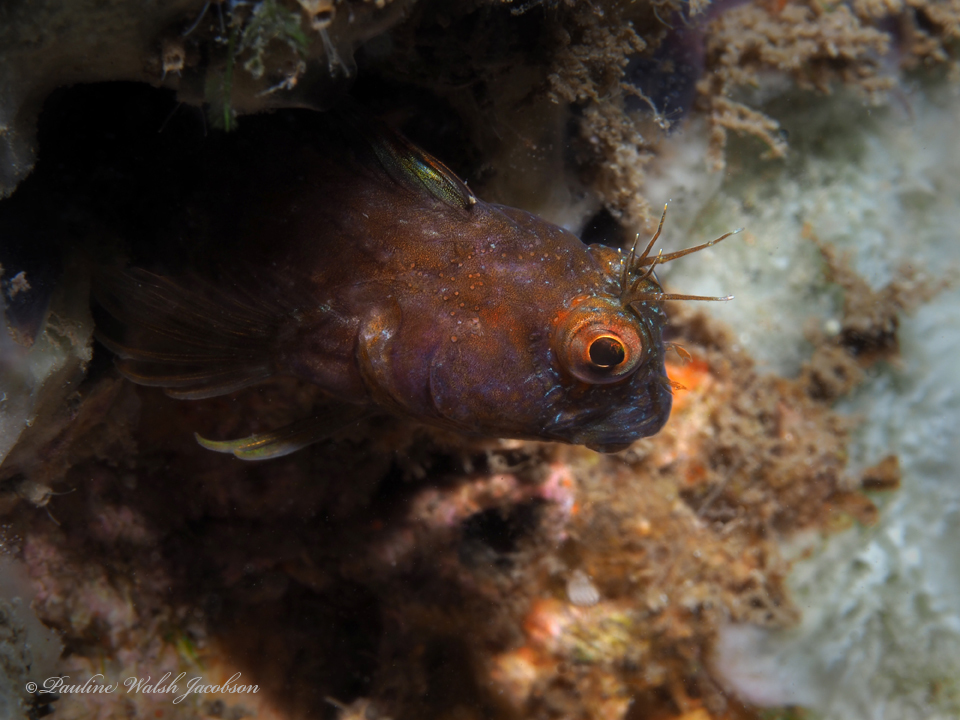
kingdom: Animalia
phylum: Chordata
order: Perciformes
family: Blenniidae
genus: Parablennius
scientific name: Parablennius marmoreus
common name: Seaweed blenny
